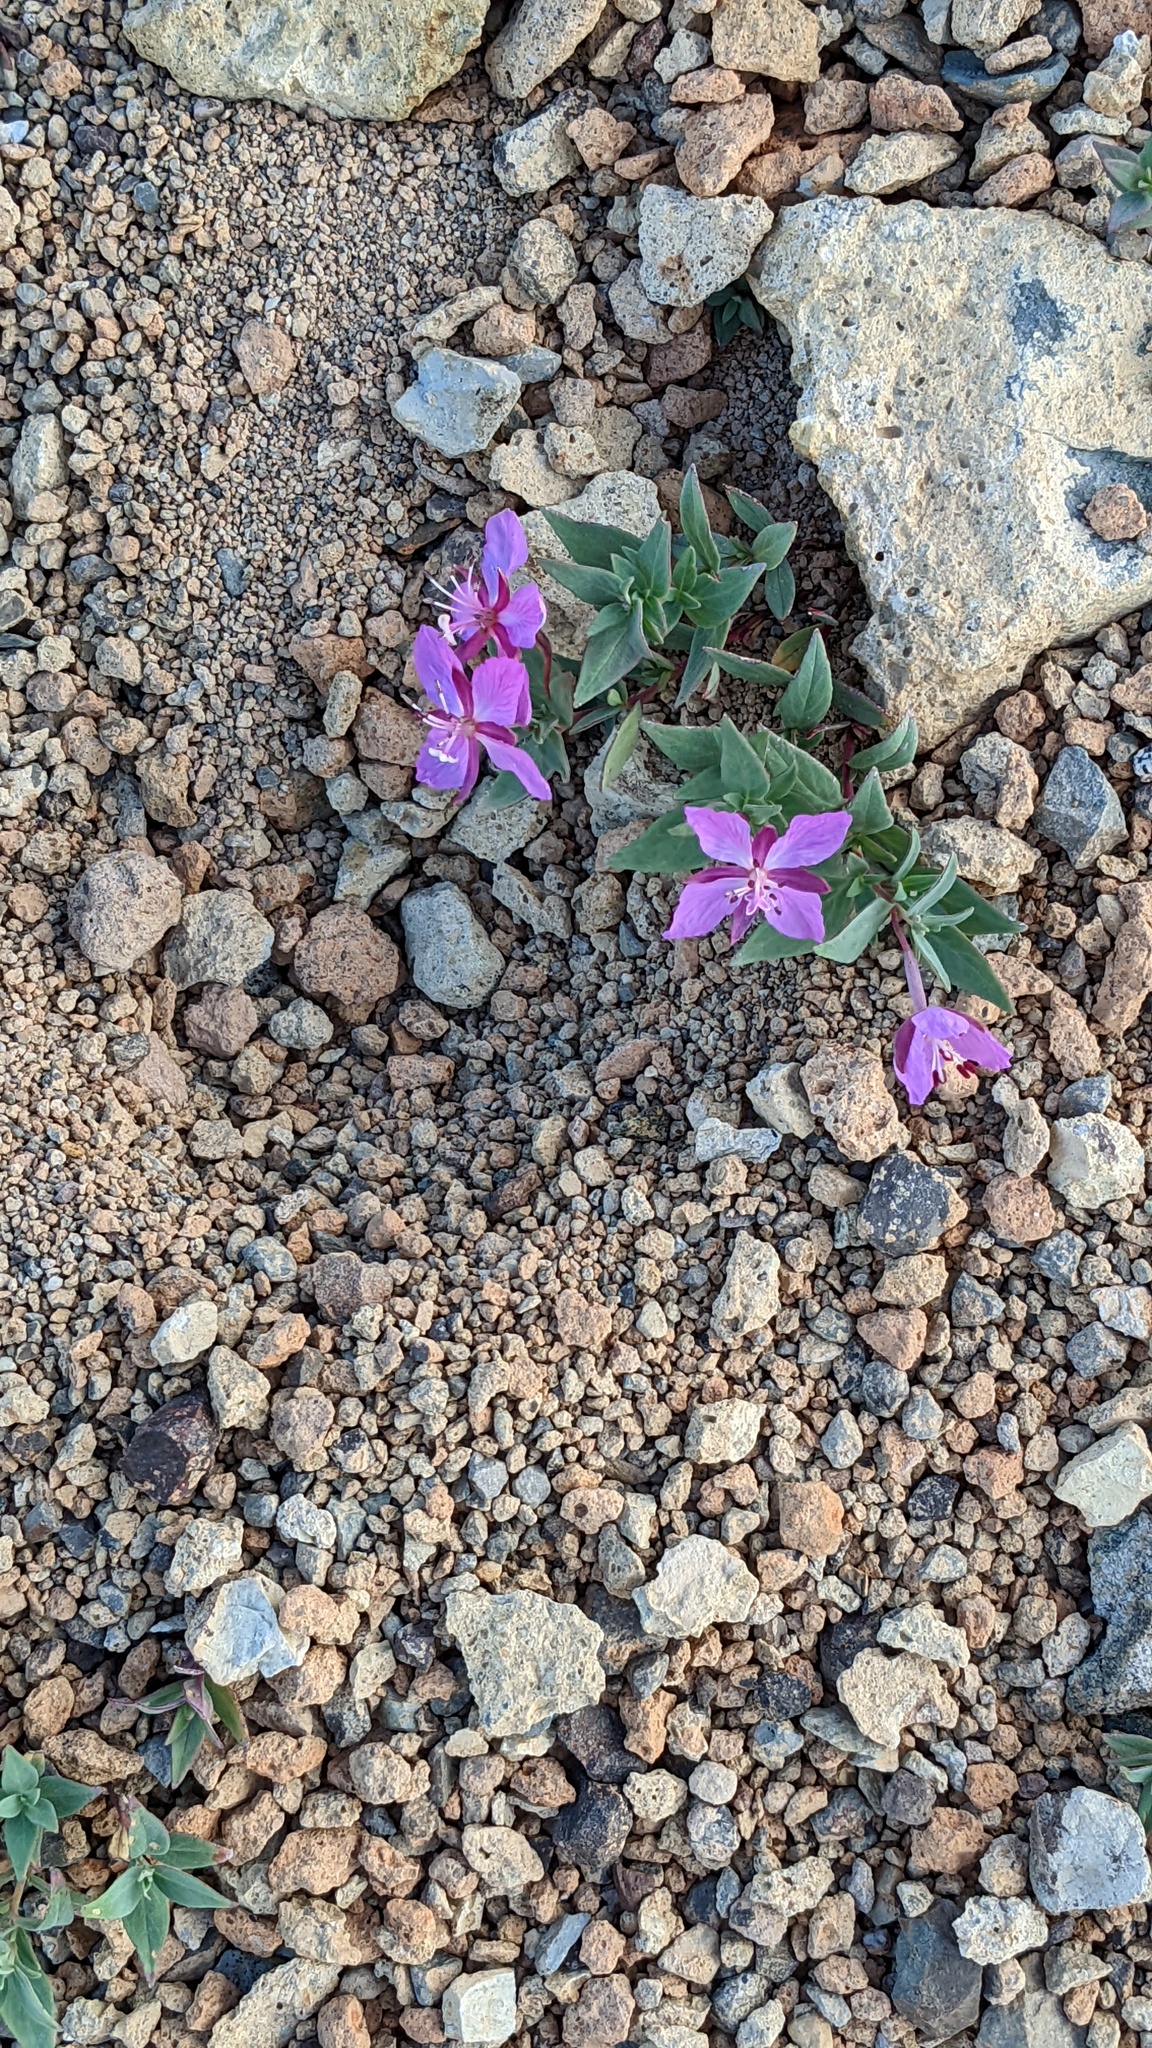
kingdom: Plantae
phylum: Tracheophyta
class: Magnoliopsida
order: Myrtales
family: Onagraceae
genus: Chamaenerion
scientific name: Chamaenerion latifolium
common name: Dwarf fireweed
